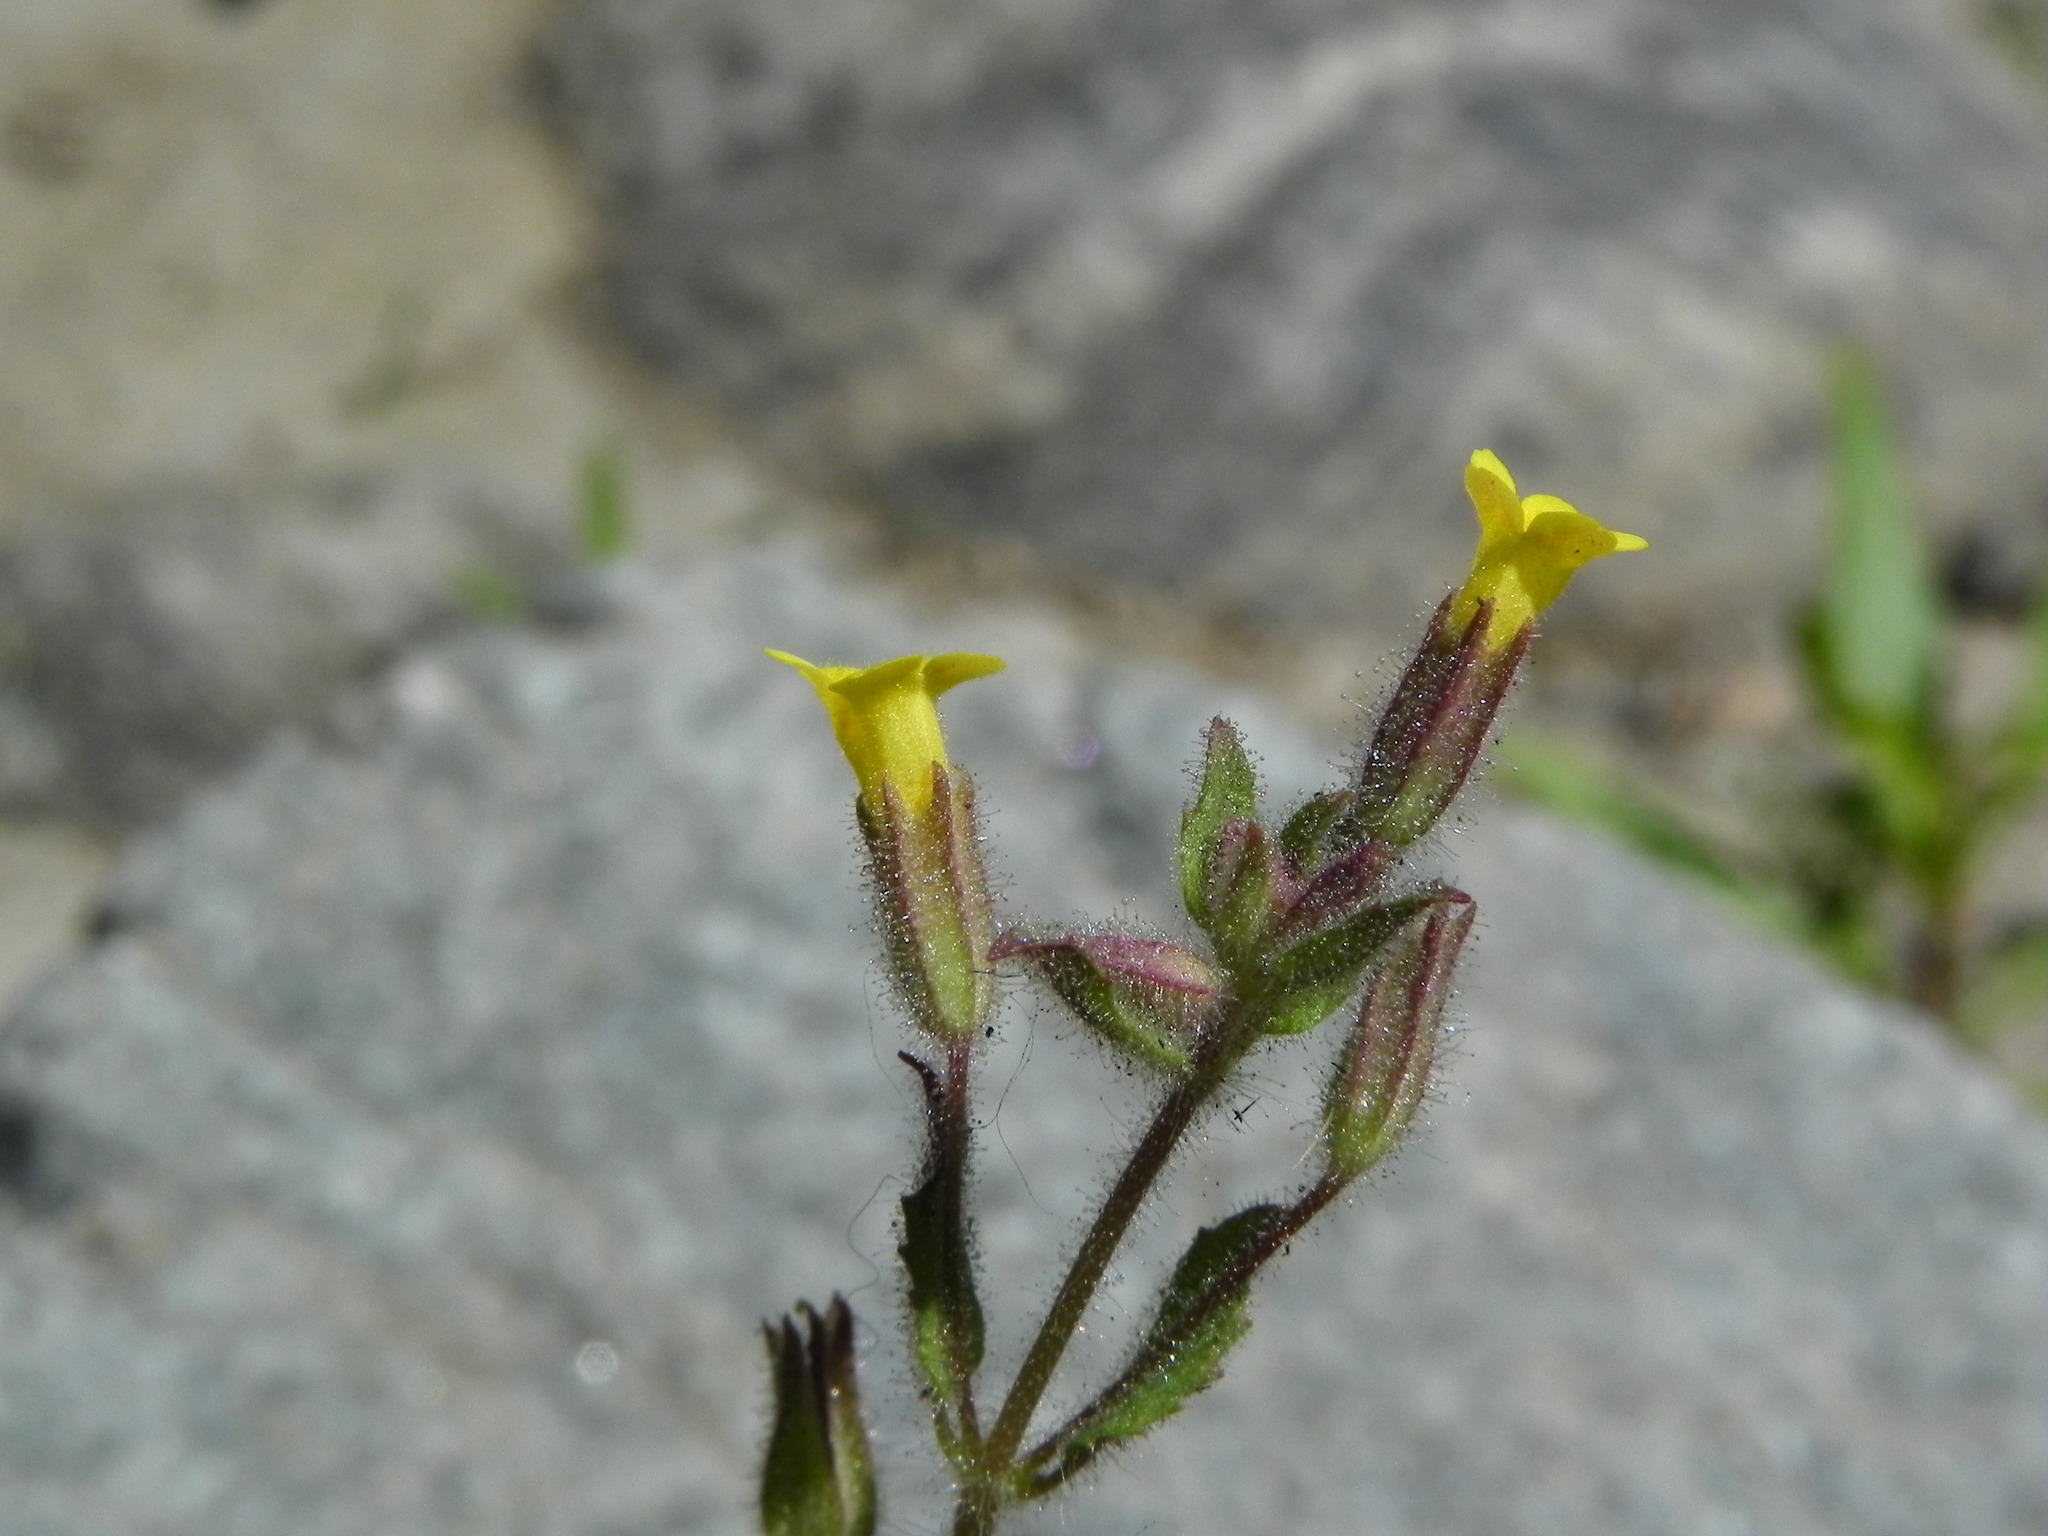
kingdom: Plantae
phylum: Tracheophyta
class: Magnoliopsida
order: Lamiales
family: Phrymaceae
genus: Erythranthe
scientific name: Erythranthe floribunda
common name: Floriferous monkeyflower
